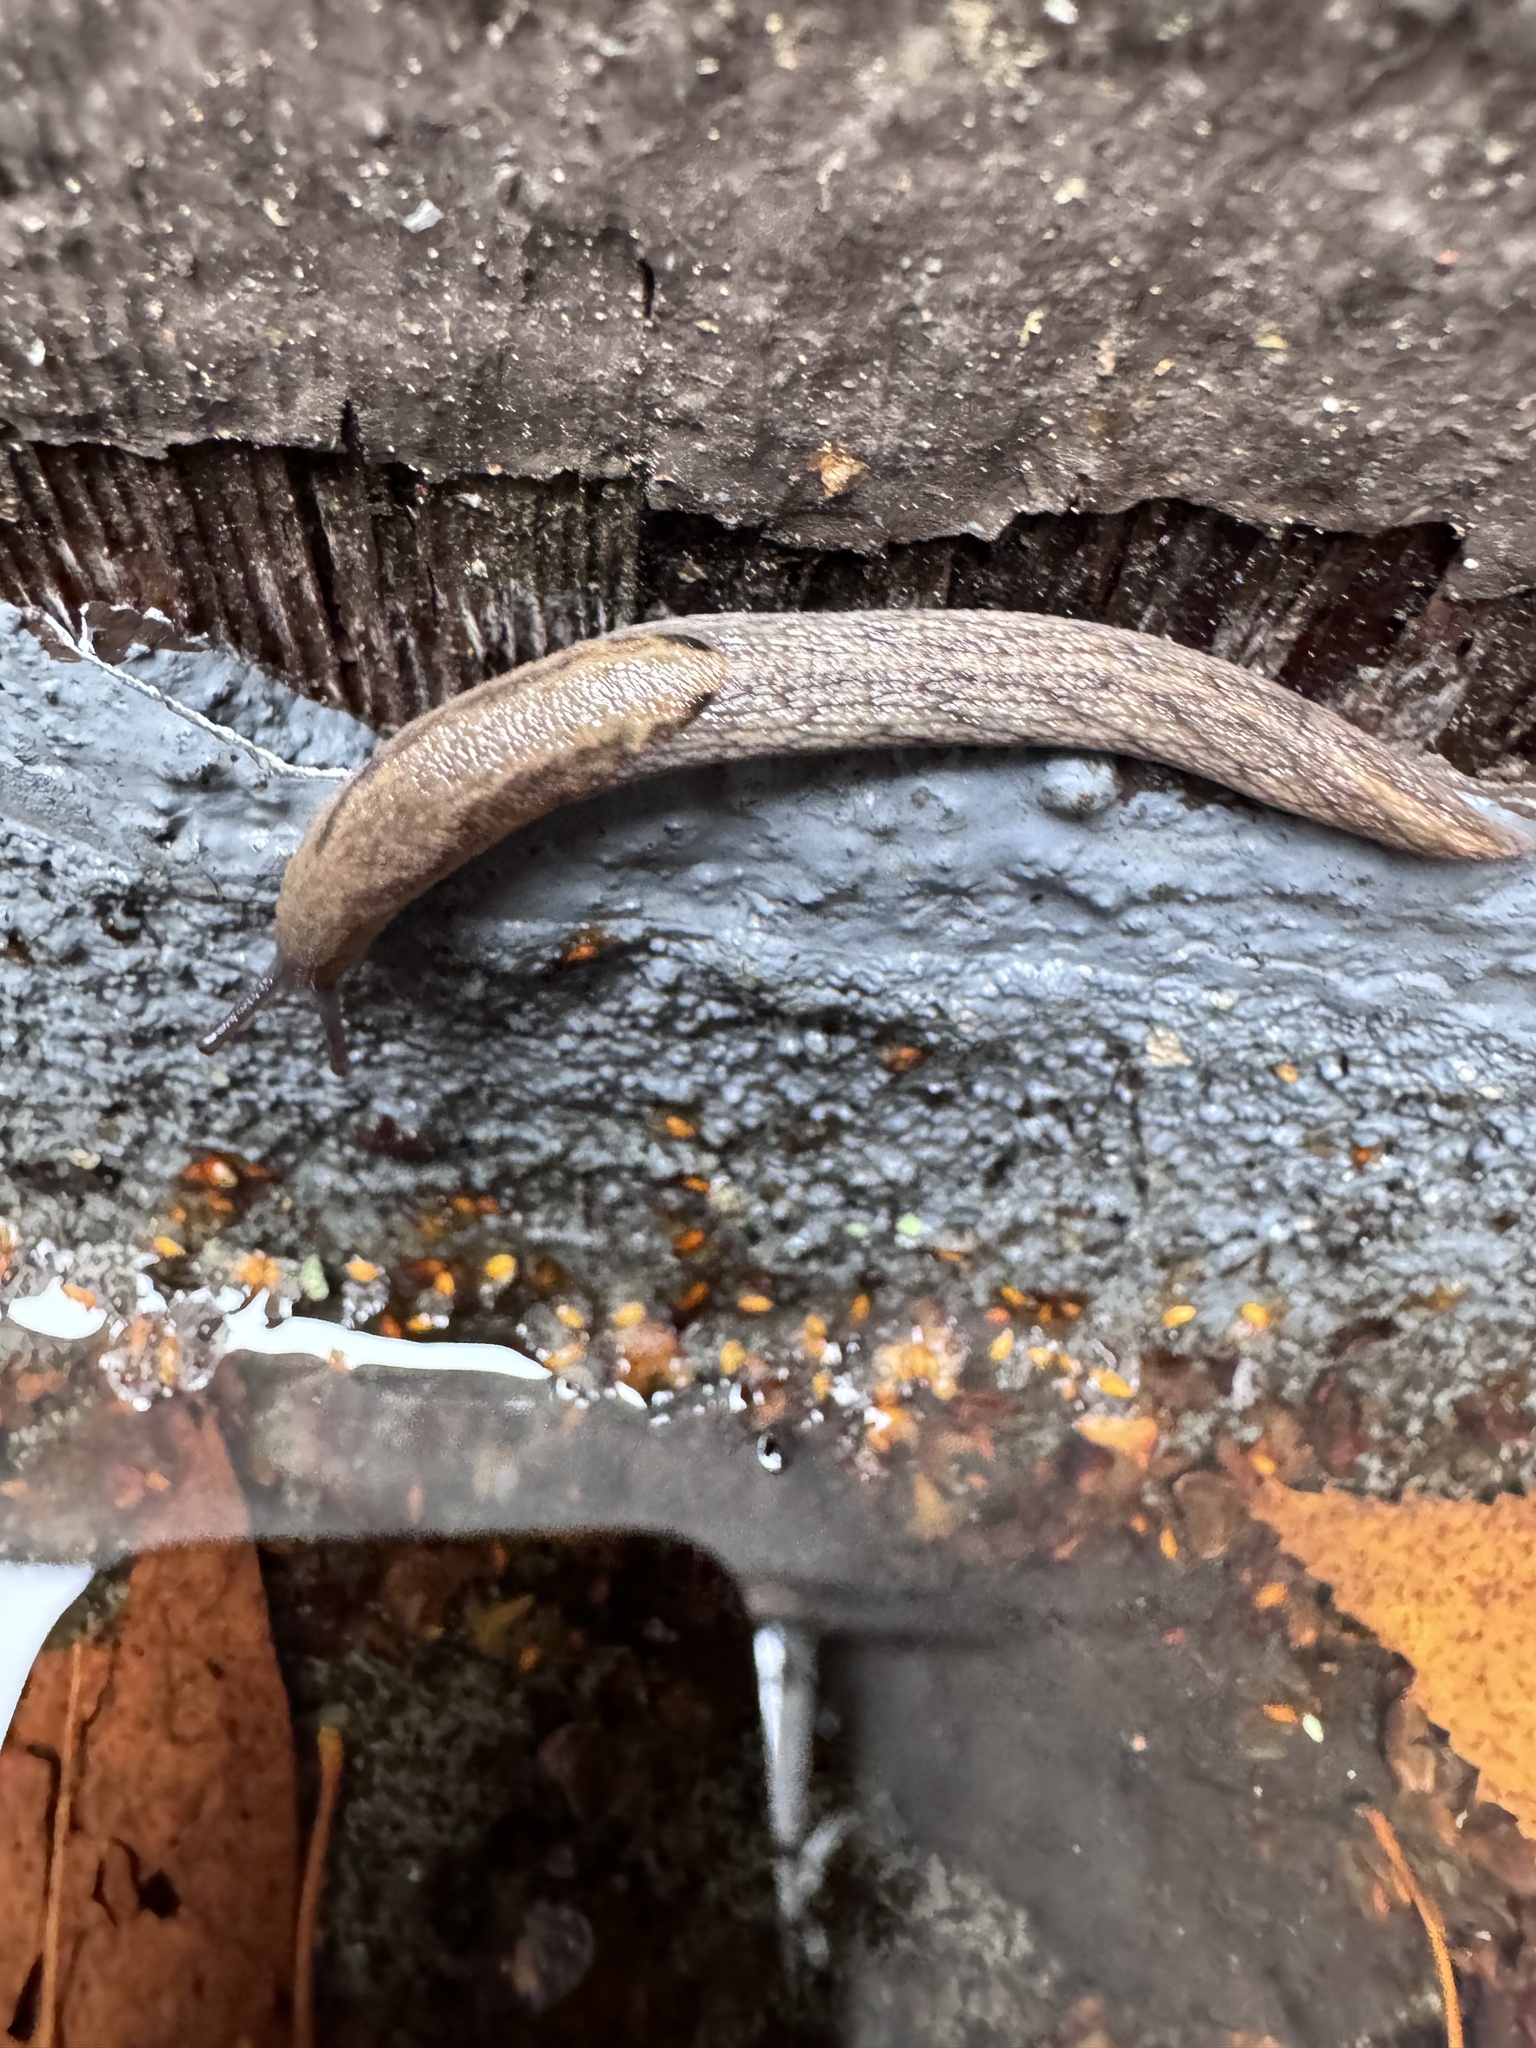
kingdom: Animalia
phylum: Mollusca
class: Gastropoda
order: Stylommatophora
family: Ariolimacidae
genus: Prophysaon
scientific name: Prophysaon andersonii
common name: Reticulate taildropper
